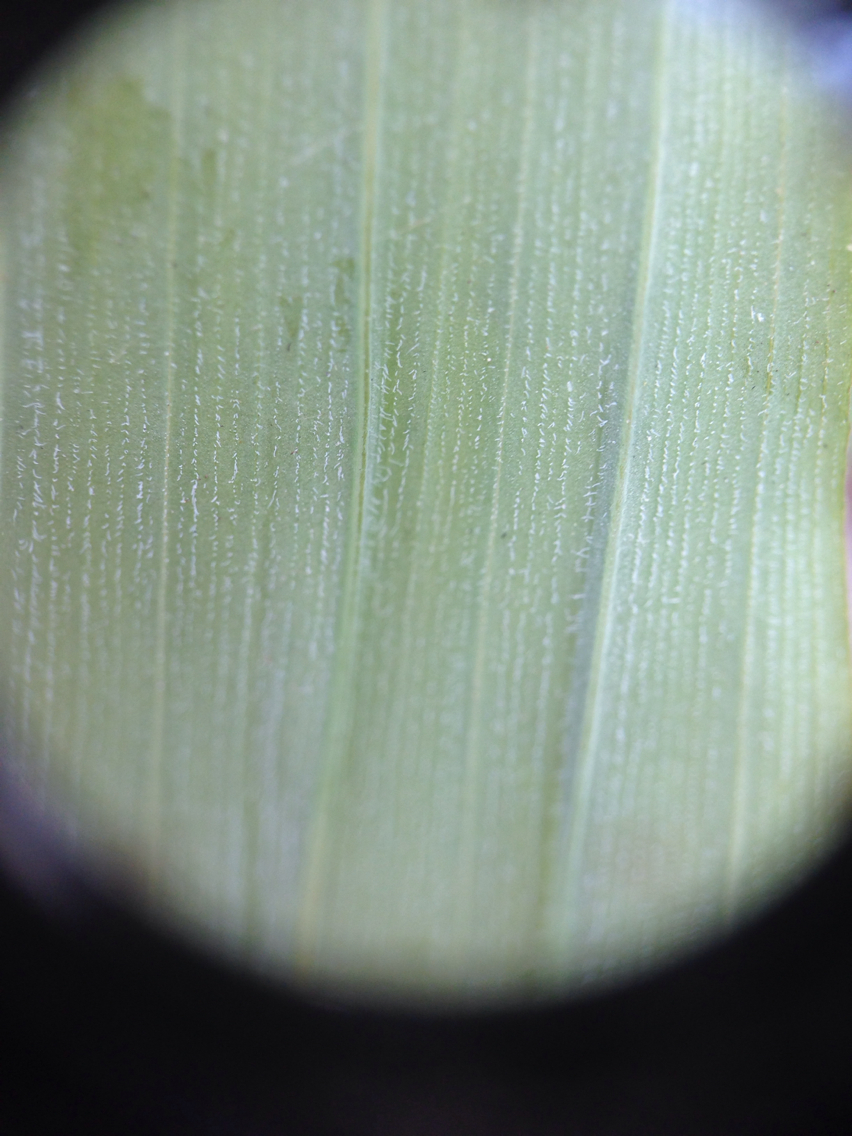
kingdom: Plantae
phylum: Tracheophyta
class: Liliopsida
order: Asparagales
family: Asparagaceae
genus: Polygonatum
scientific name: Polygonatum pubescens
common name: Downy solomon's seal
